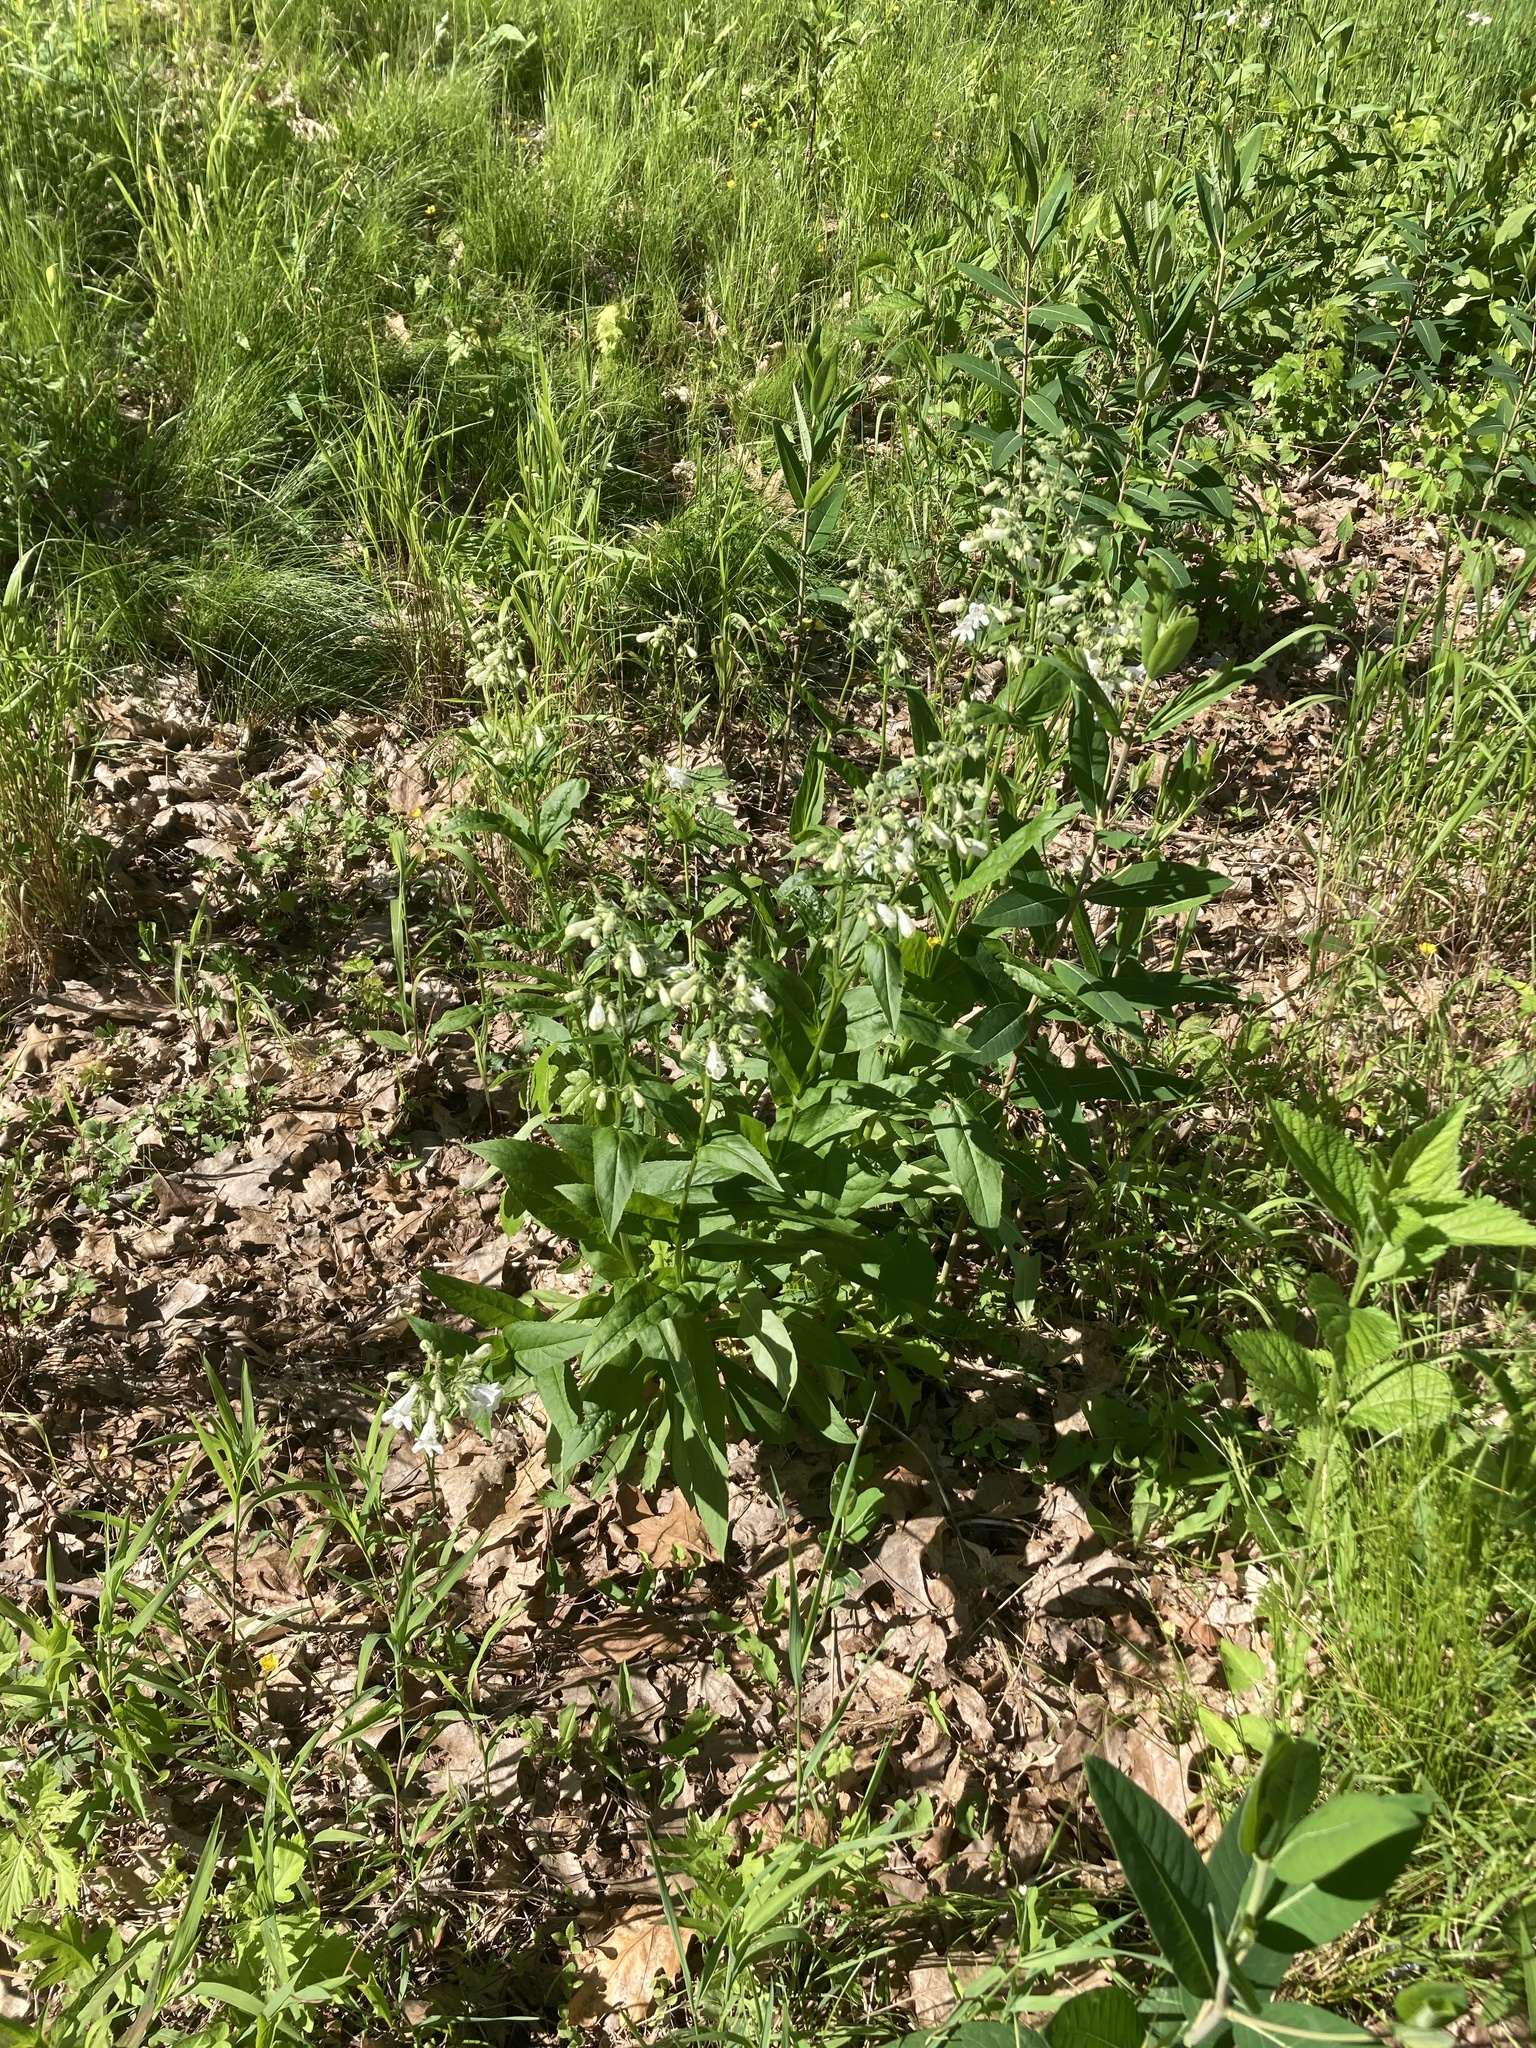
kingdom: Plantae
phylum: Tracheophyta
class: Magnoliopsida
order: Lamiales
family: Plantaginaceae
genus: Penstemon
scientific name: Penstemon digitalis
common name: Foxglove beardtongue
